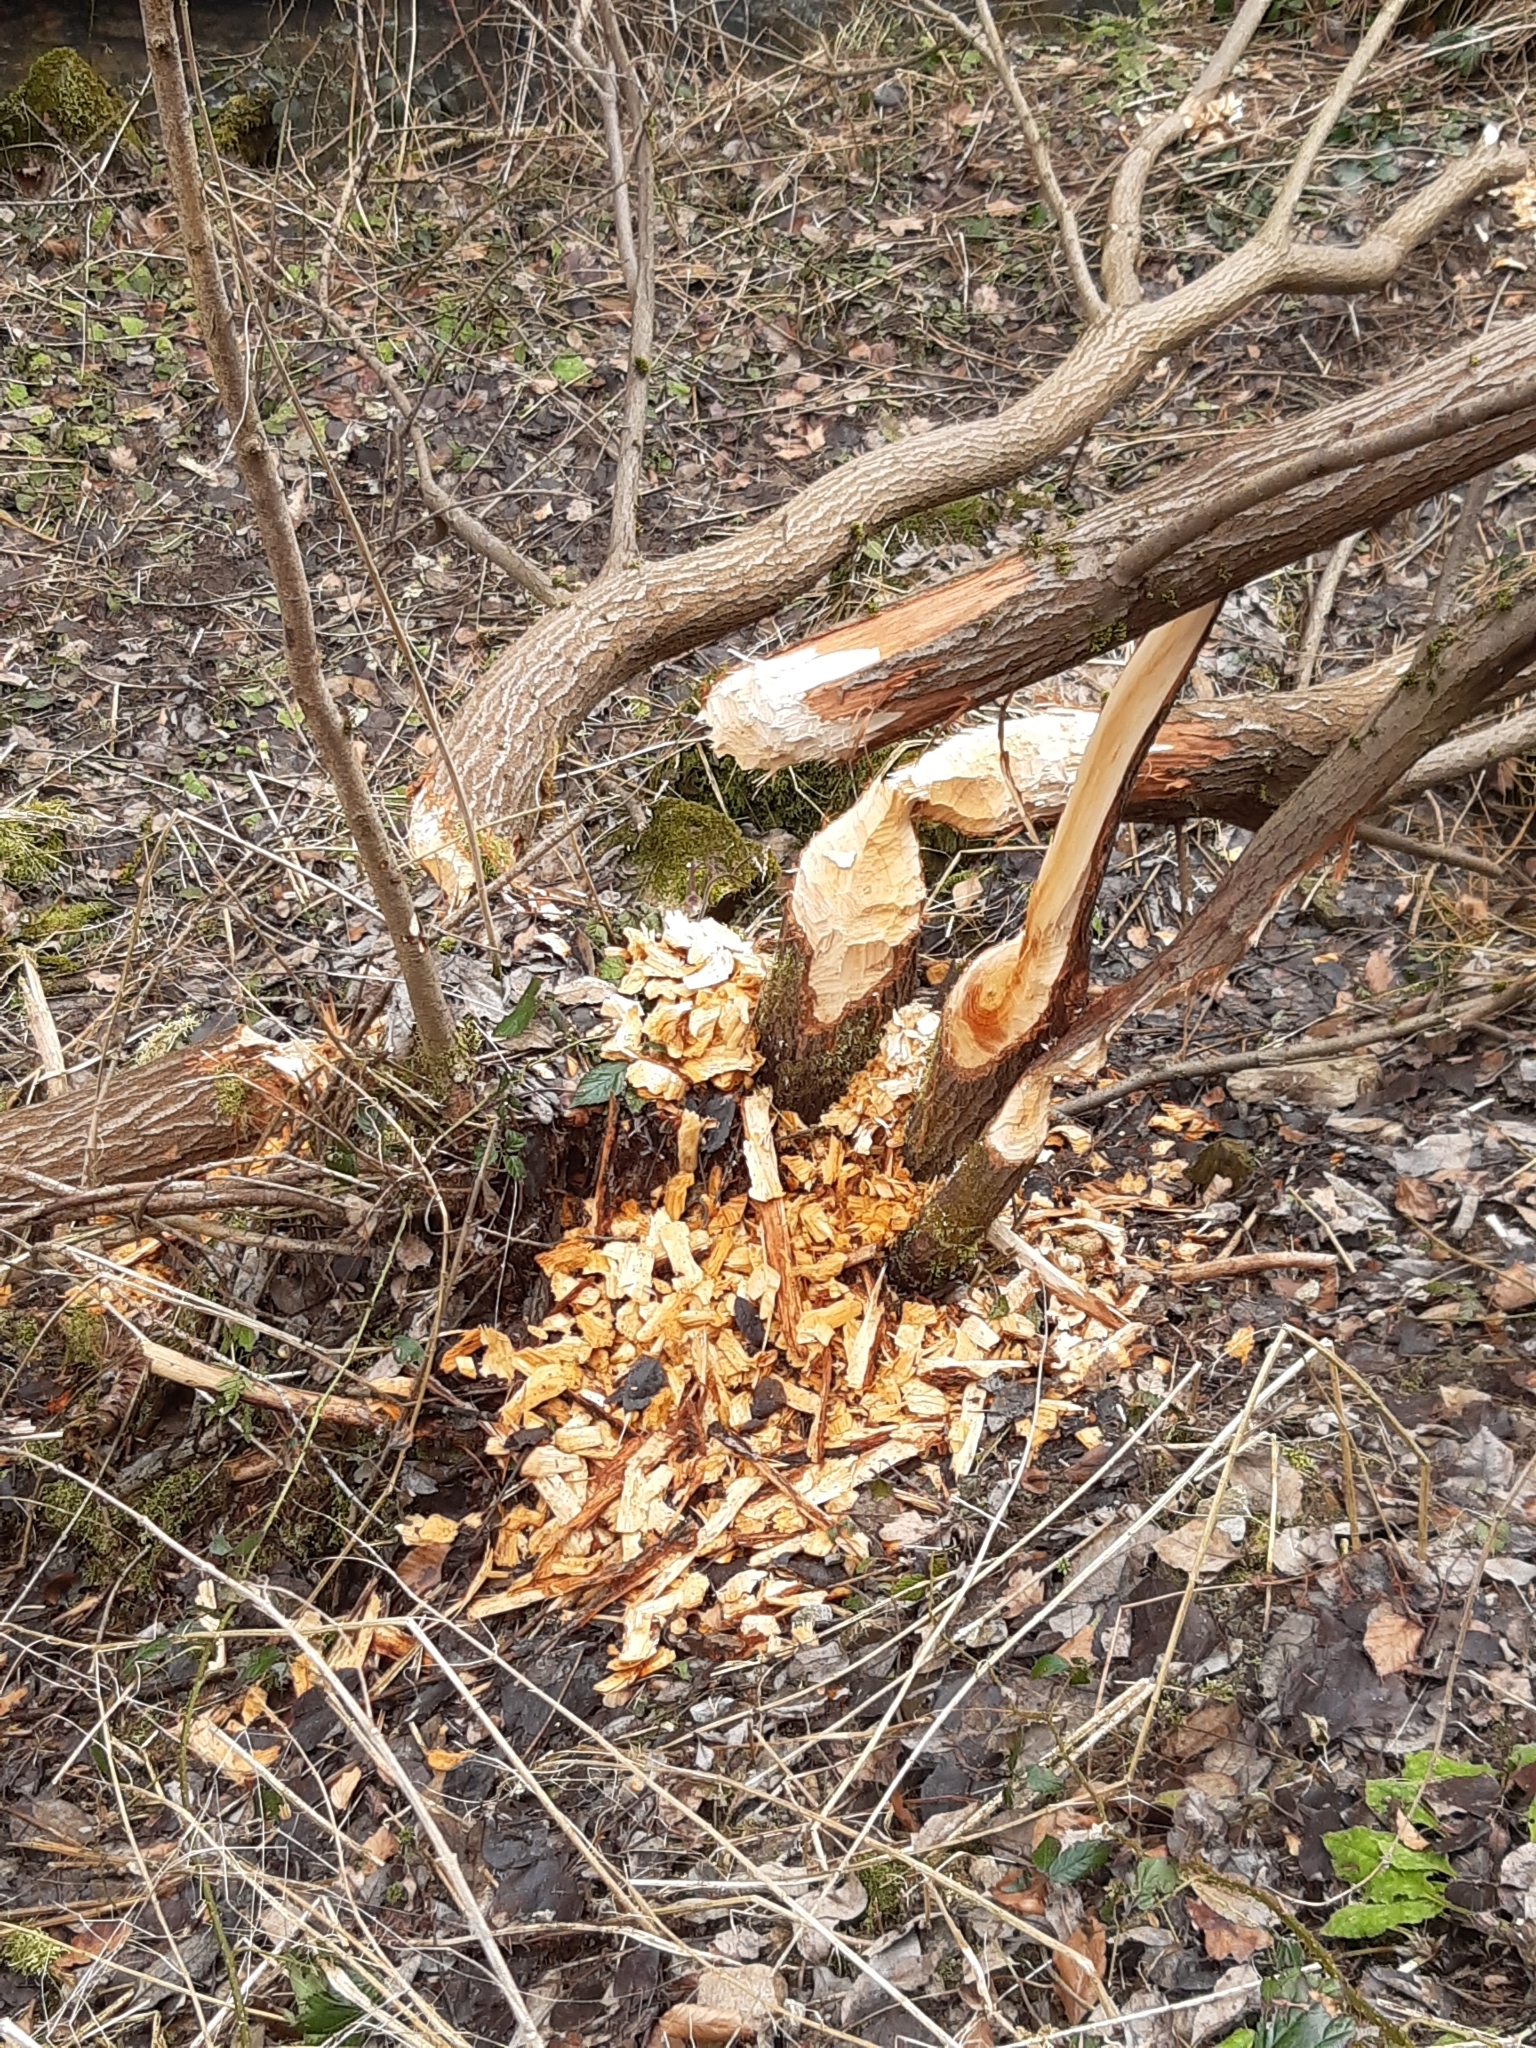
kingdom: Animalia
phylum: Chordata
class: Mammalia
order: Rodentia
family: Castoridae
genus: Castor
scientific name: Castor fiber
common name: Eurasian beaver
